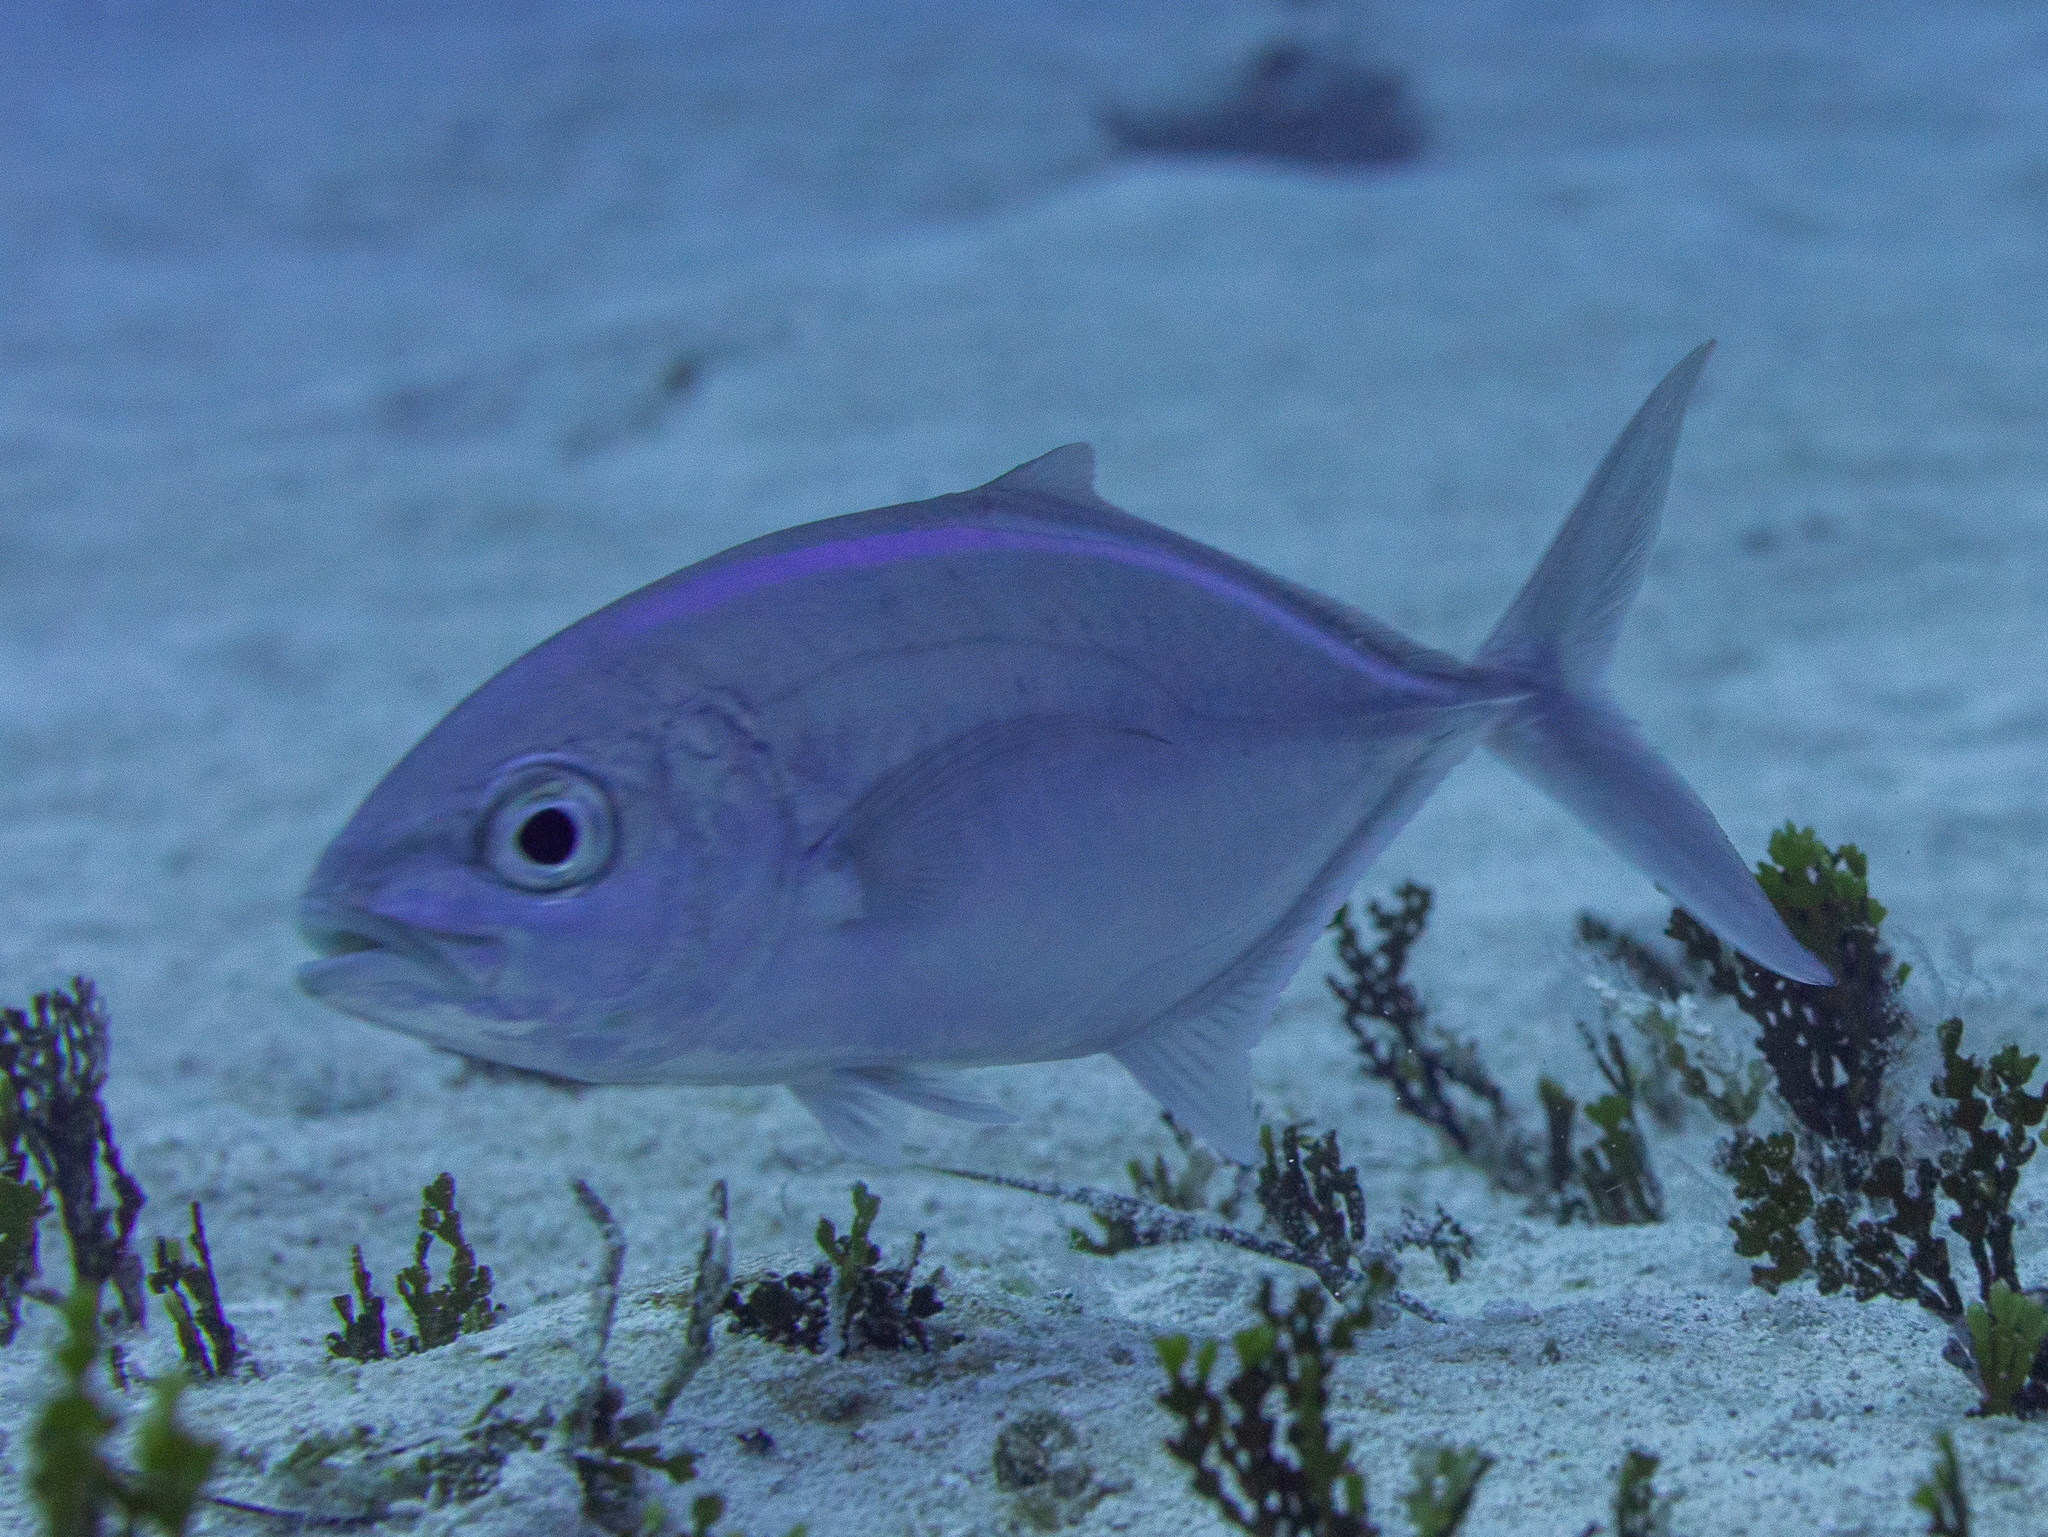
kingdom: Animalia
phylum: Chordata
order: Perciformes
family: Carangidae
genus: Caranx
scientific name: Caranx ruber
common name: Bar jack
